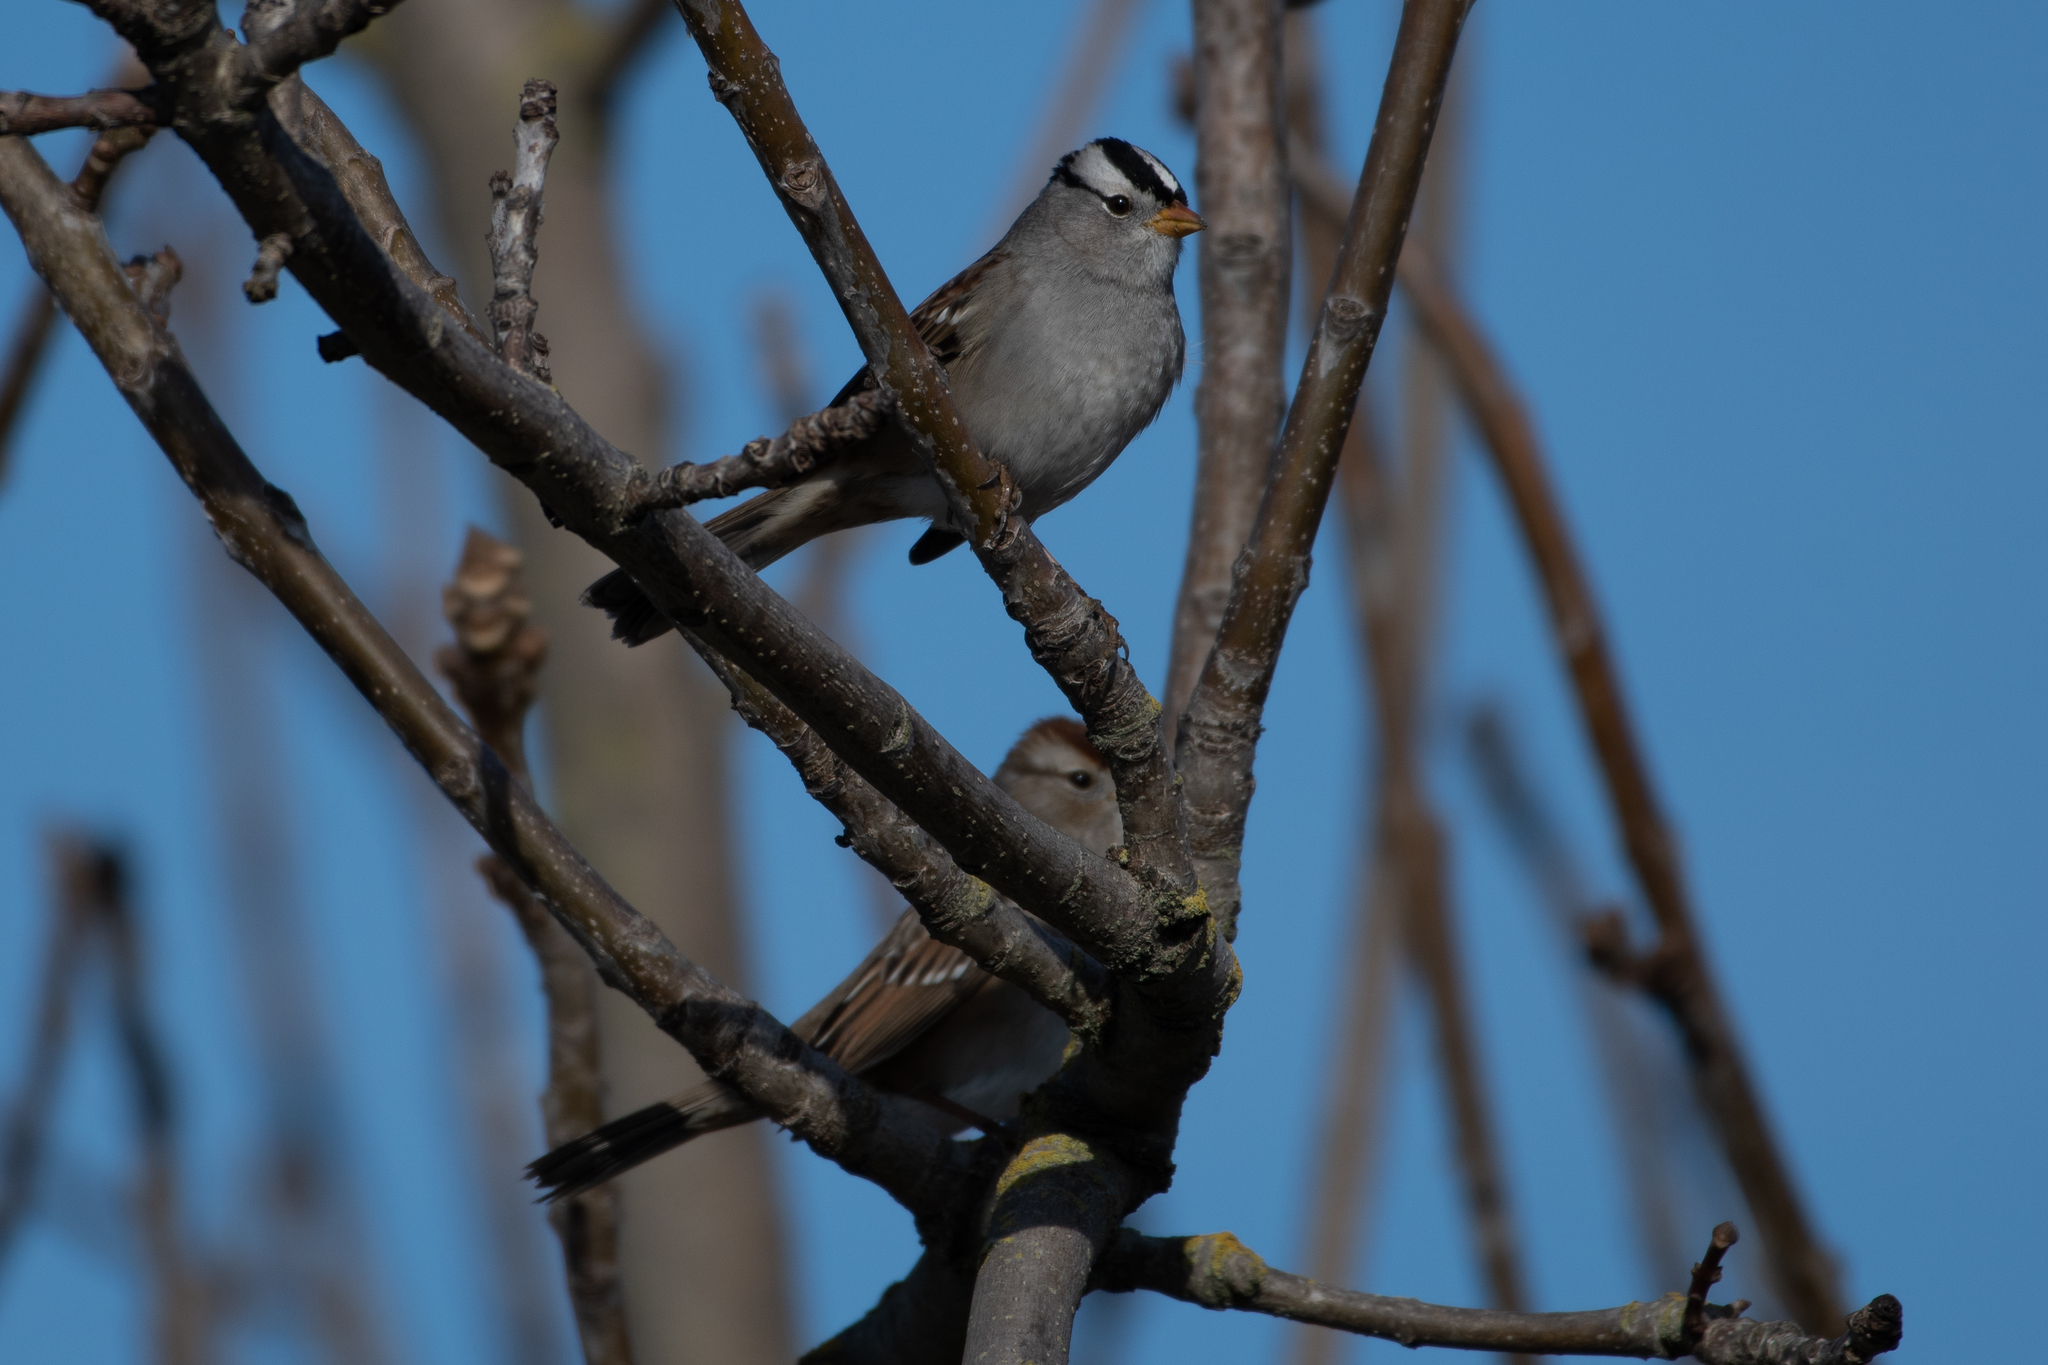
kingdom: Animalia
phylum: Chordata
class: Aves
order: Passeriformes
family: Passerellidae
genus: Zonotrichia
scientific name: Zonotrichia leucophrys
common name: White-crowned sparrow
